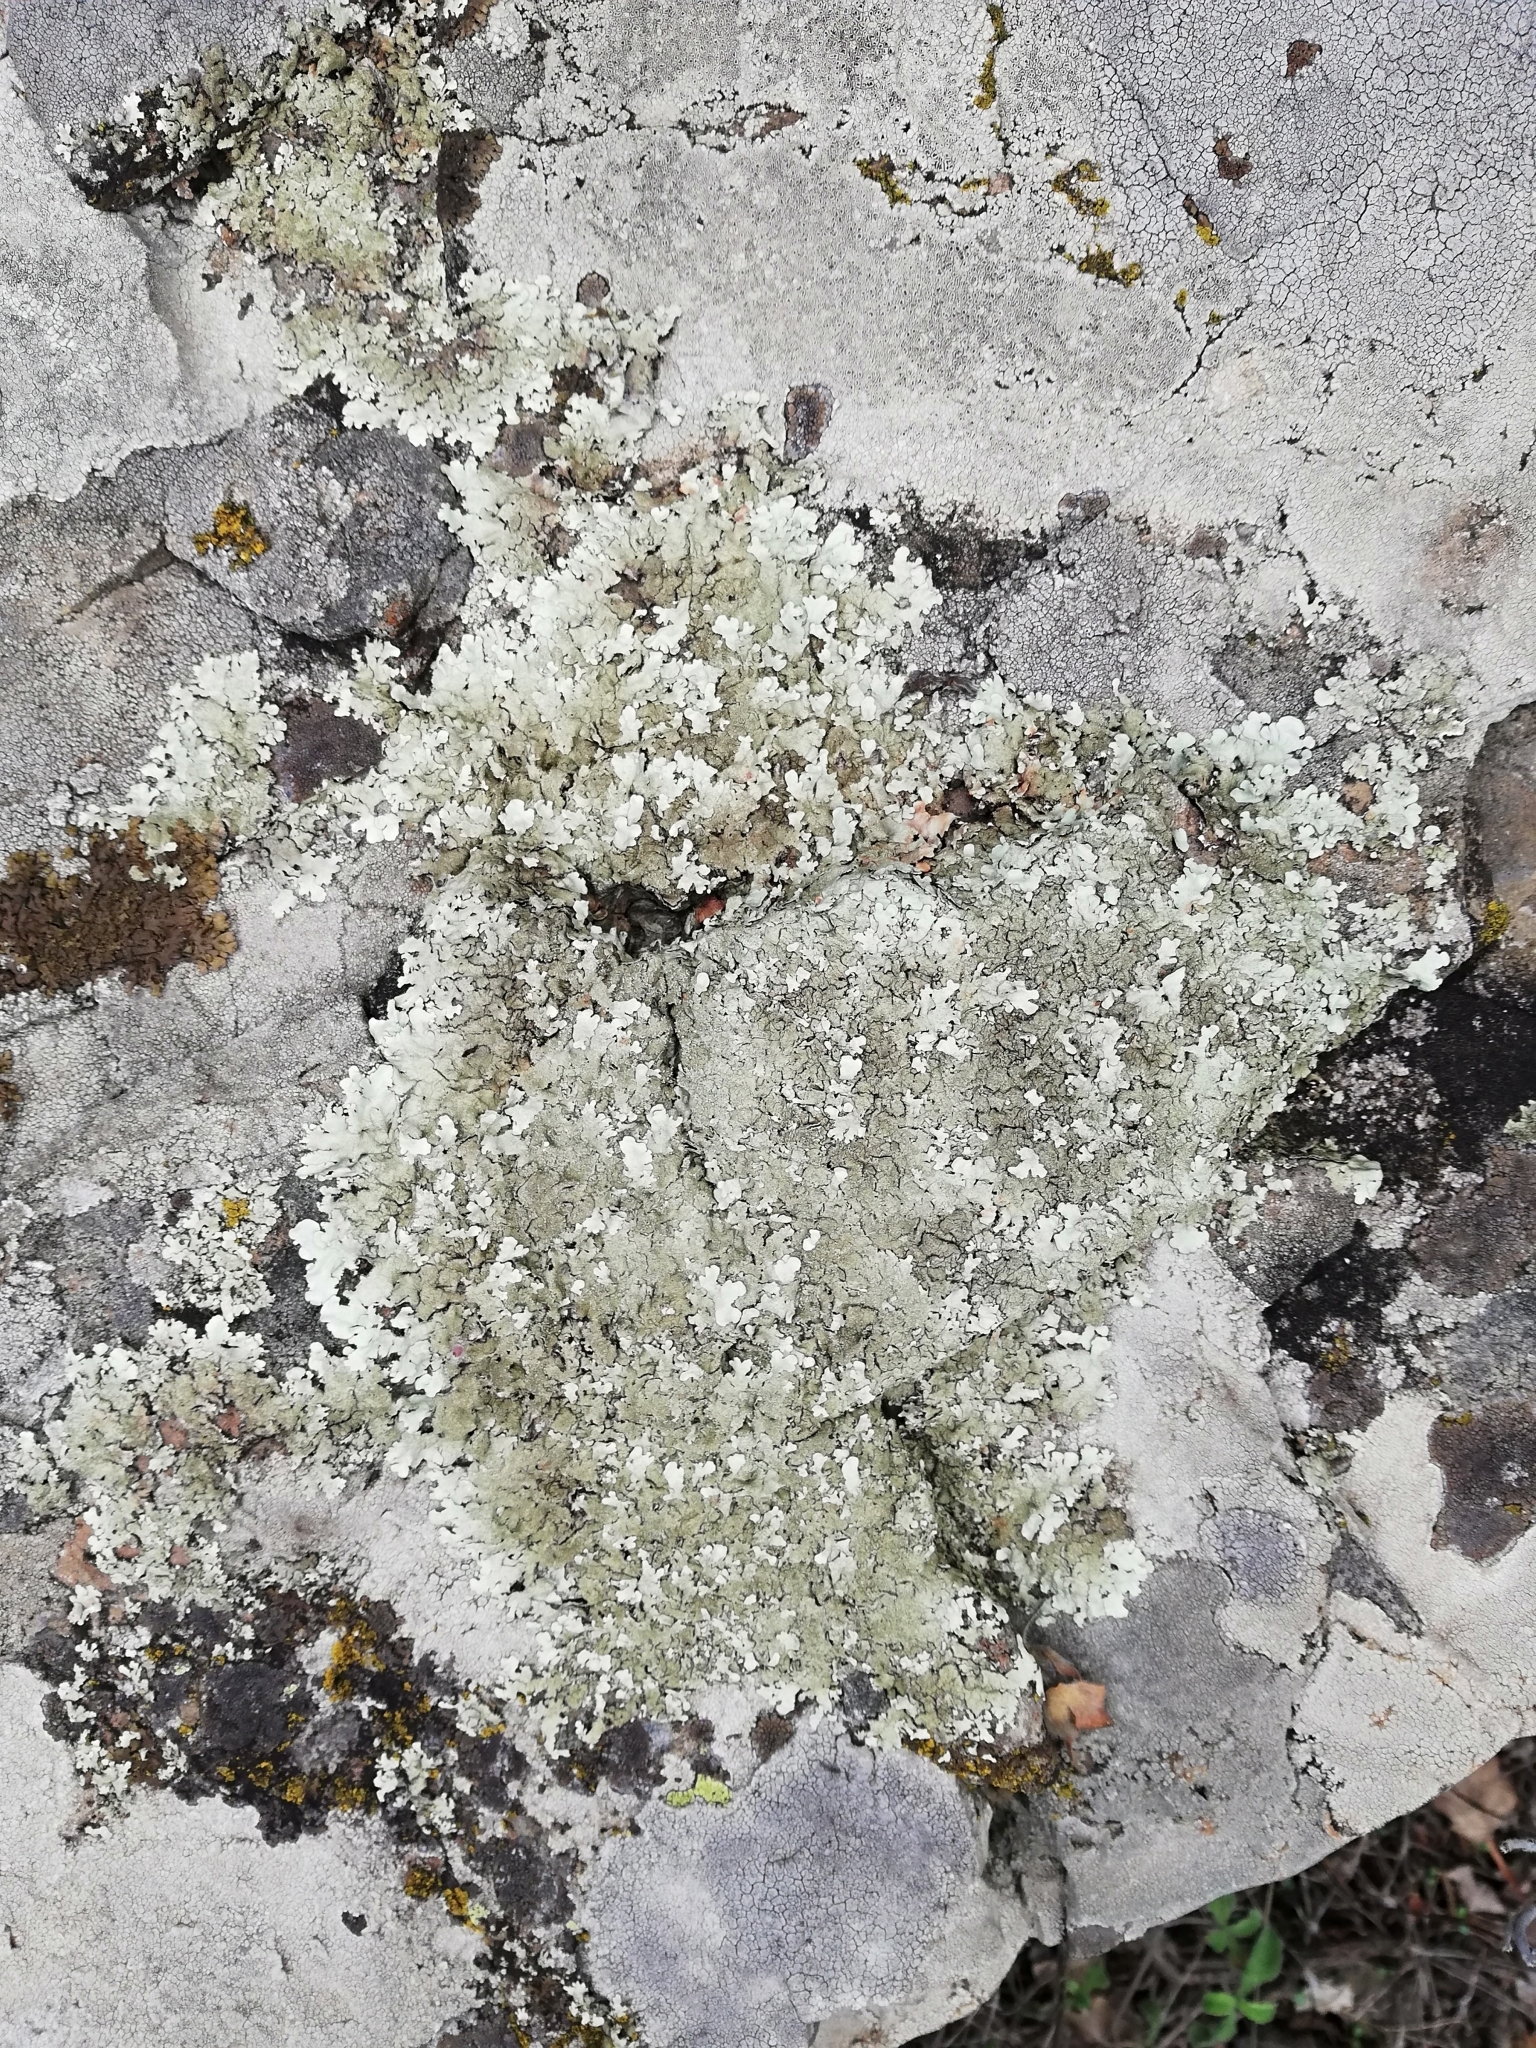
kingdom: Fungi
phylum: Ascomycota
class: Lecanoromycetes
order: Lecanorales
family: Parmeliaceae
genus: Xanthoparmelia
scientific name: Xanthoparmelia stenophylla
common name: Shingled rock shield
